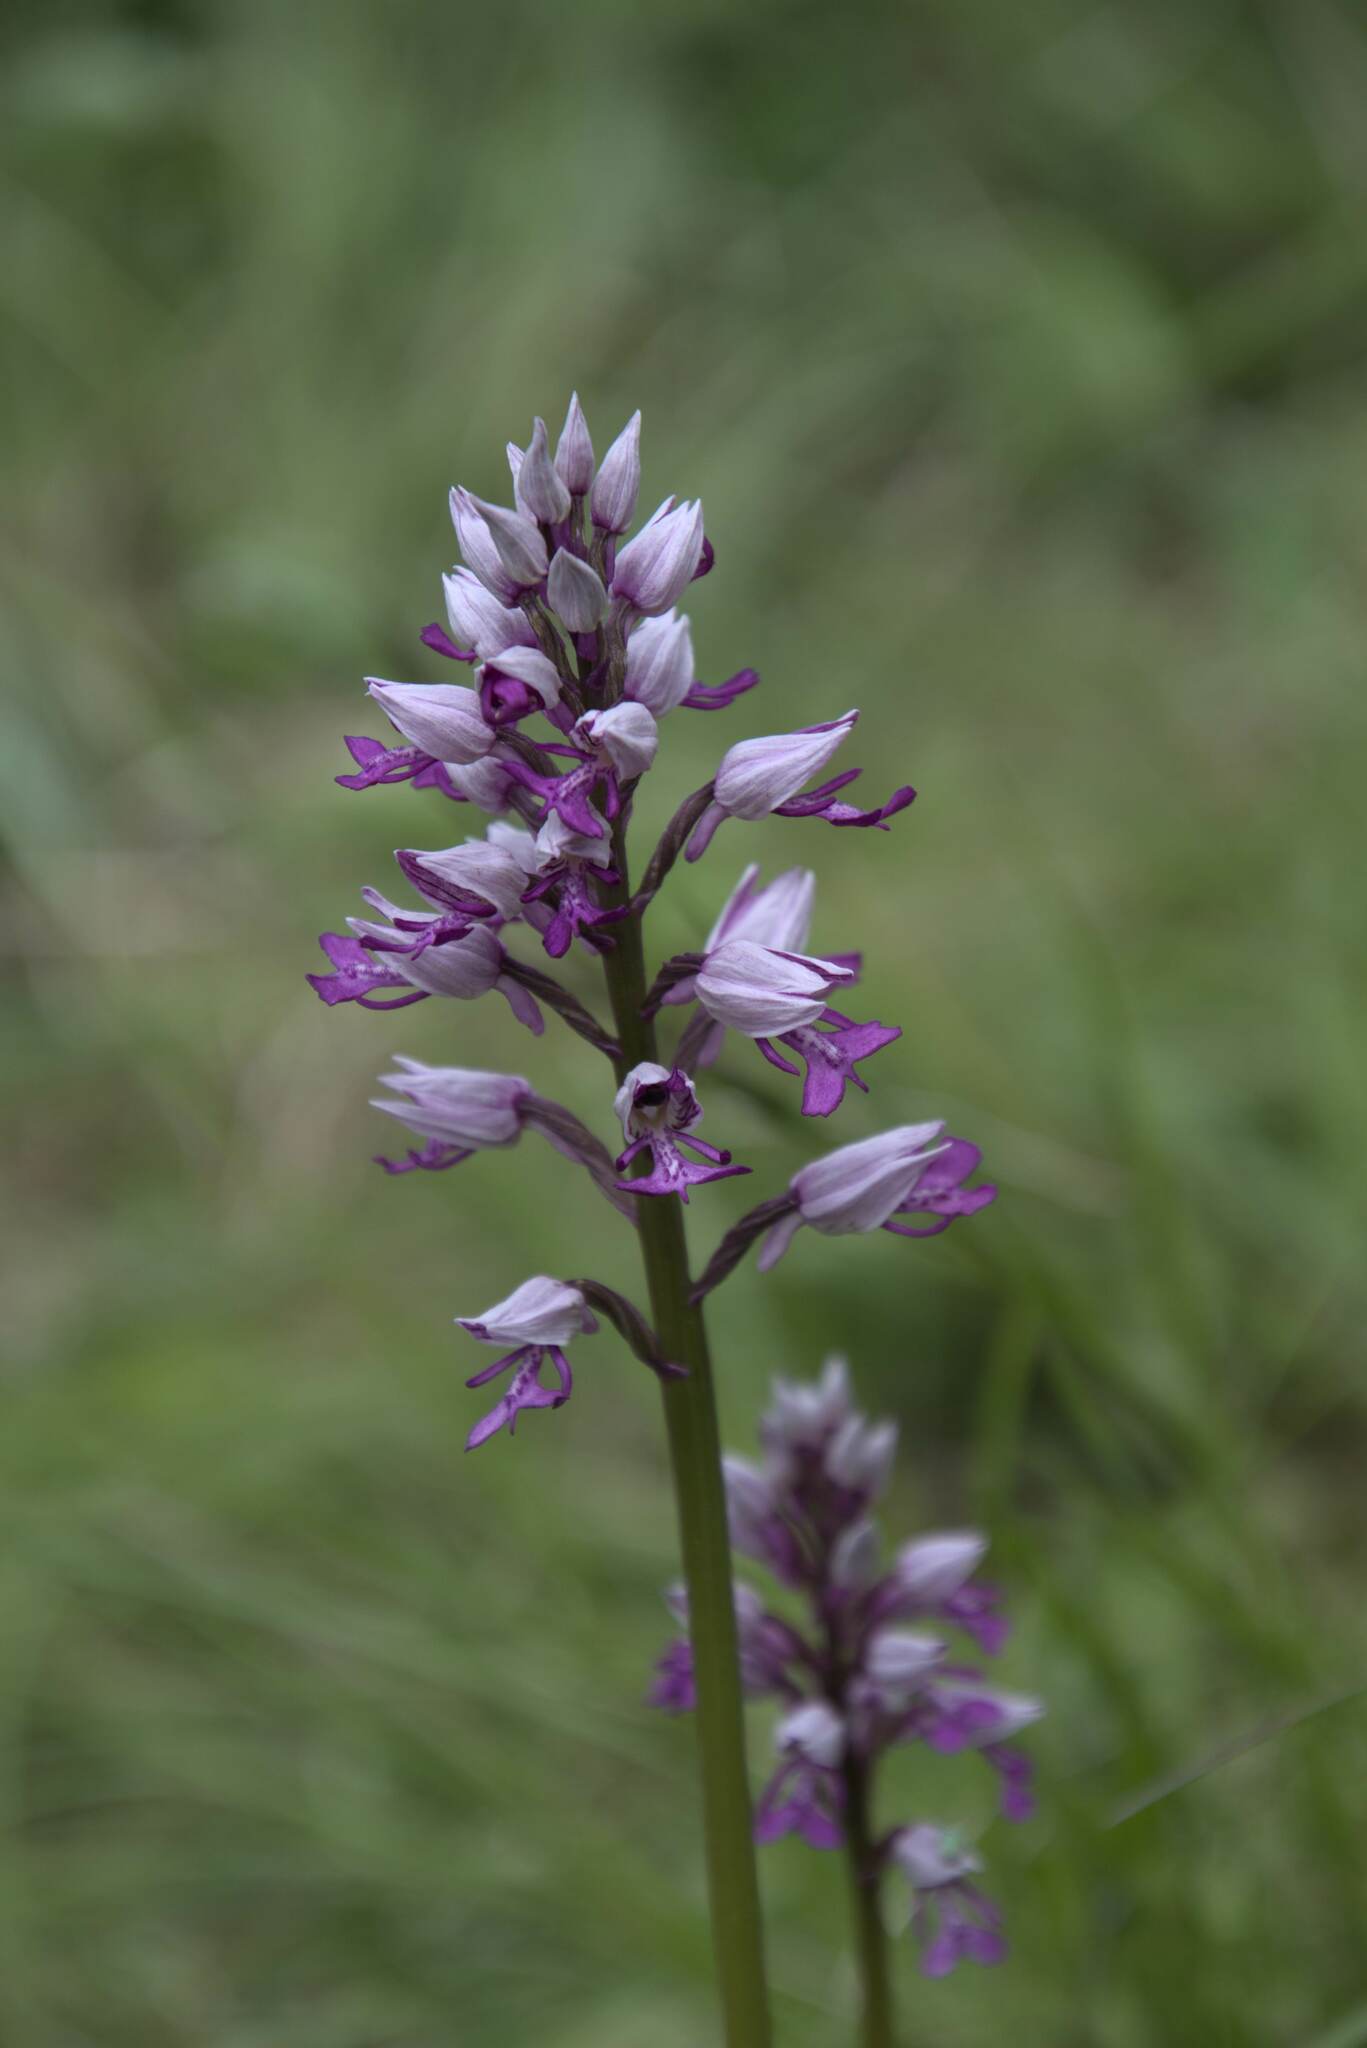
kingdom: Plantae
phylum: Tracheophyta
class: Liliopsida
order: Asparagales
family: Orchidaceae
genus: Orchis
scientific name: Orchis militaris
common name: Military orchid
